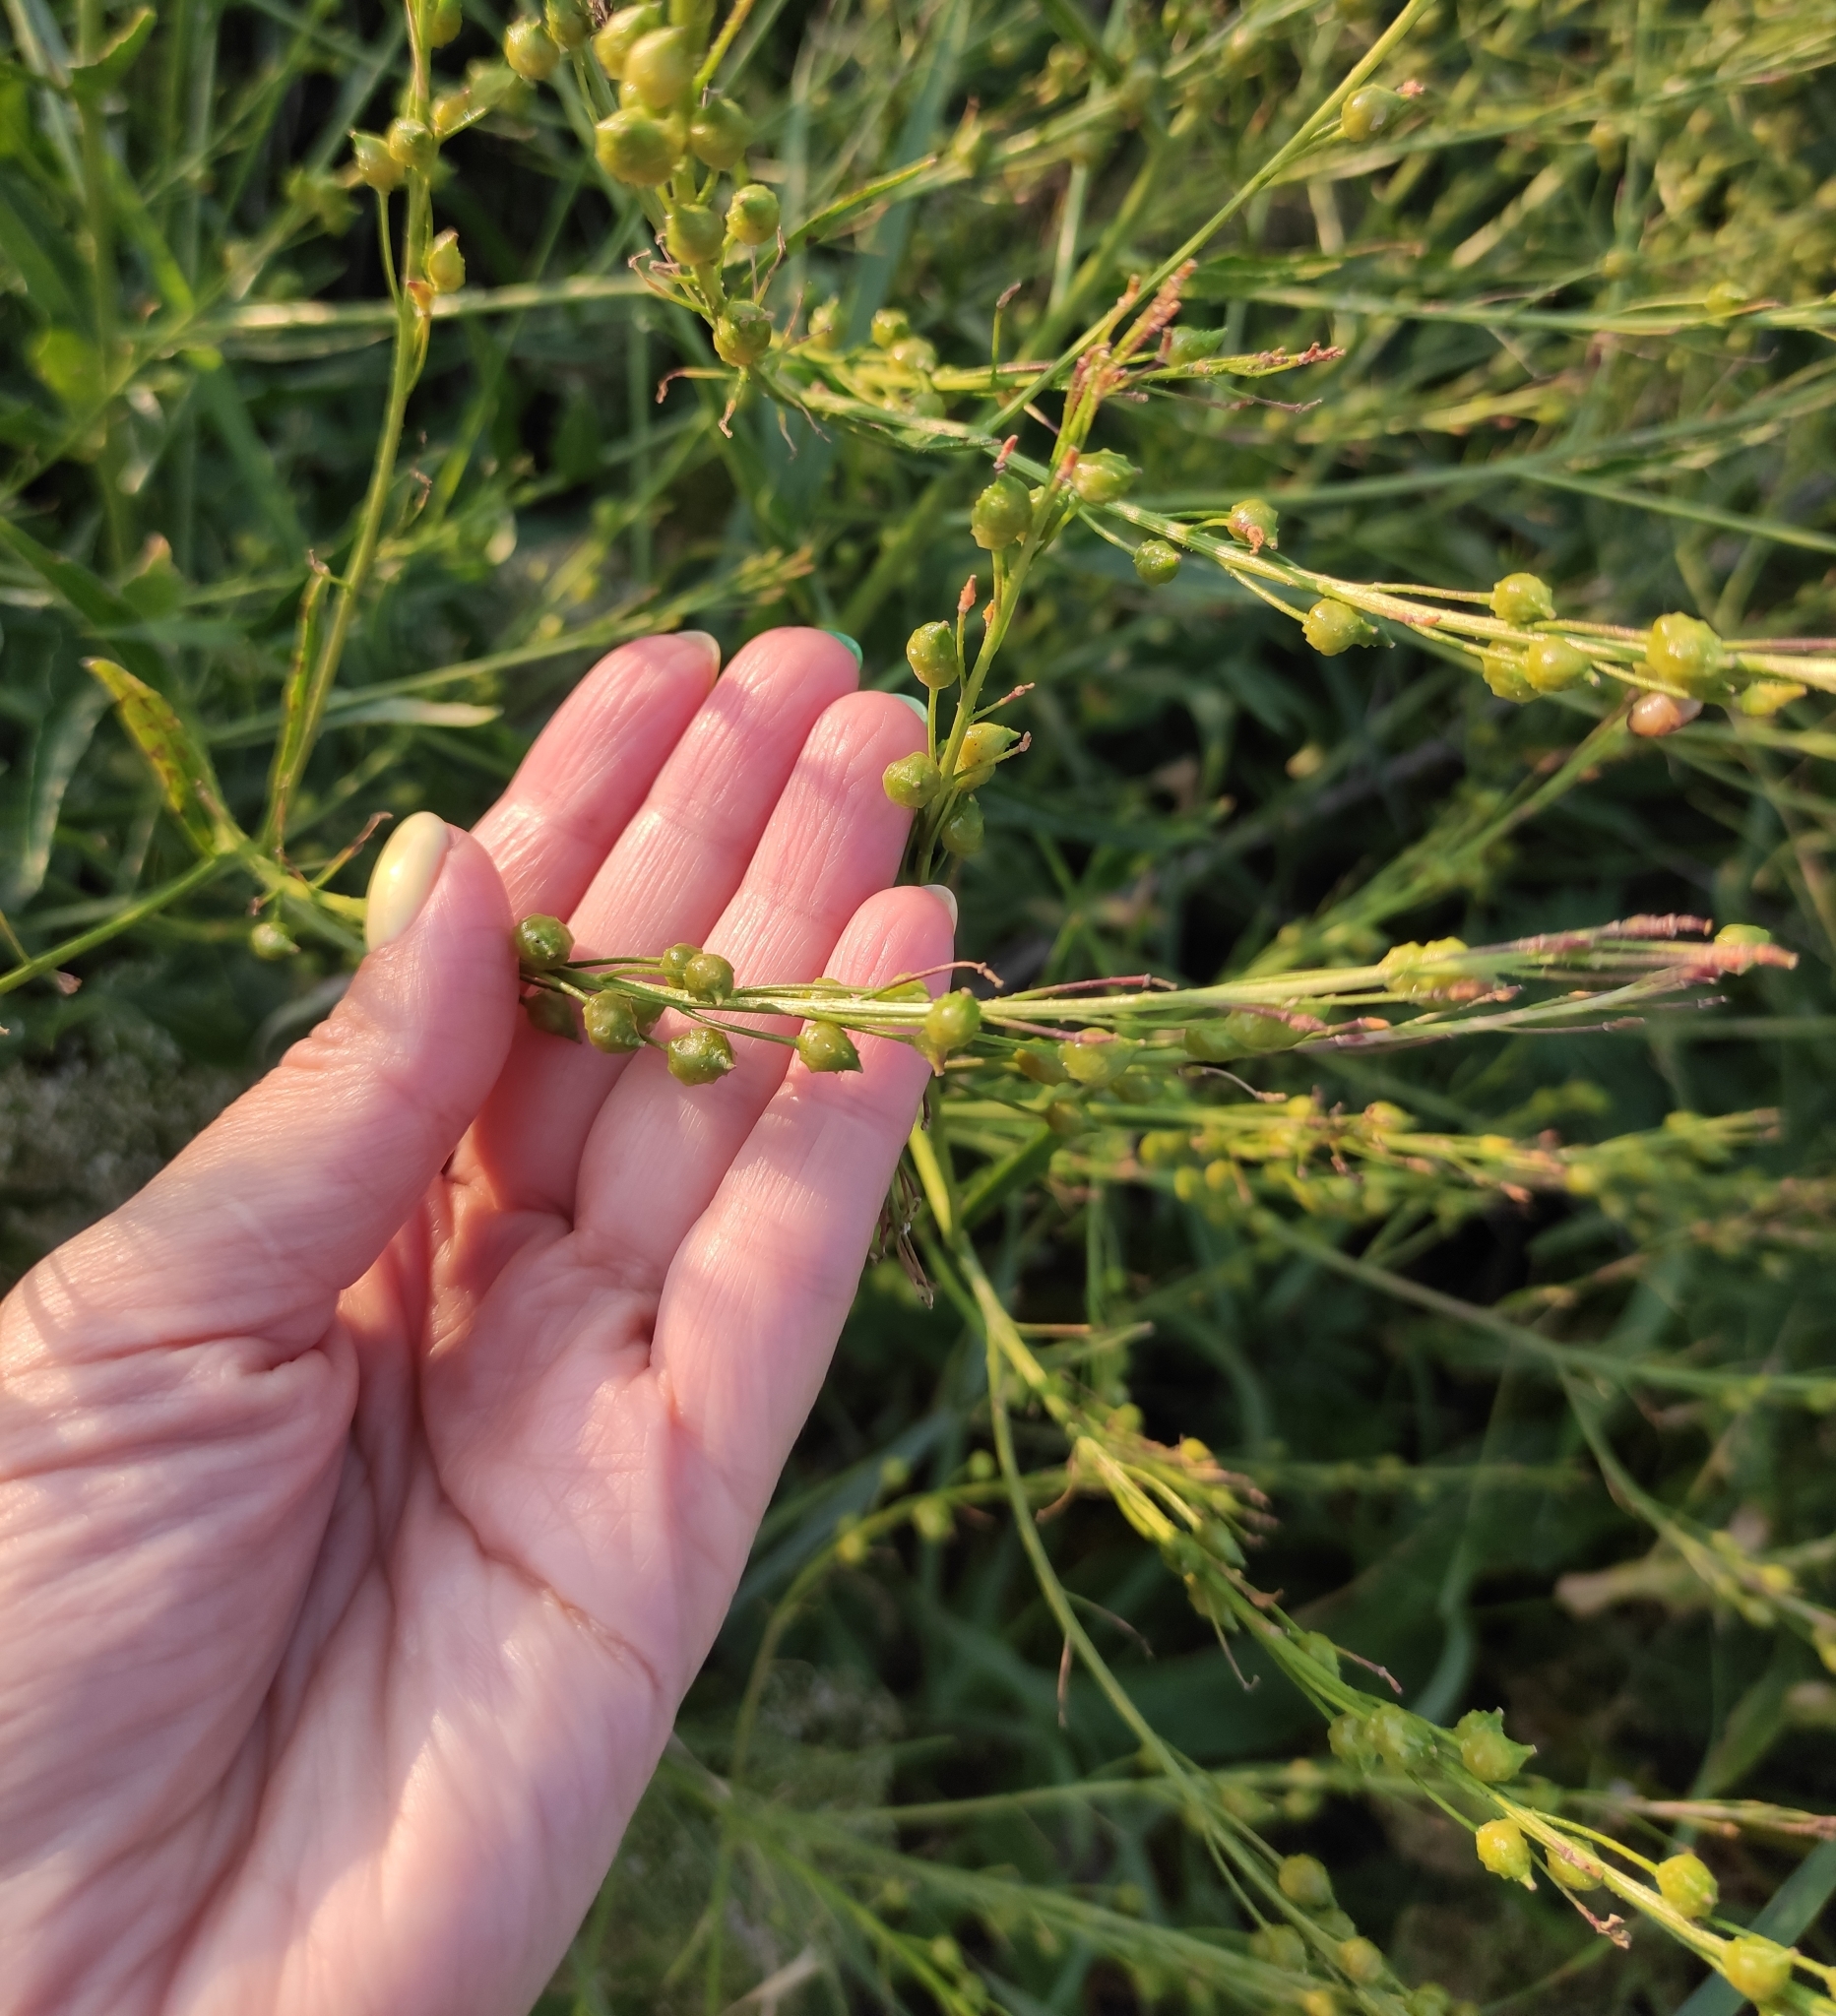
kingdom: Plantae
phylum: Tracheophyta
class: Magnoliopsida
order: Brassicales
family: Brassicaceae
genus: Bunias
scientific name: Bunias orientalis
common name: Warty-cabbage
